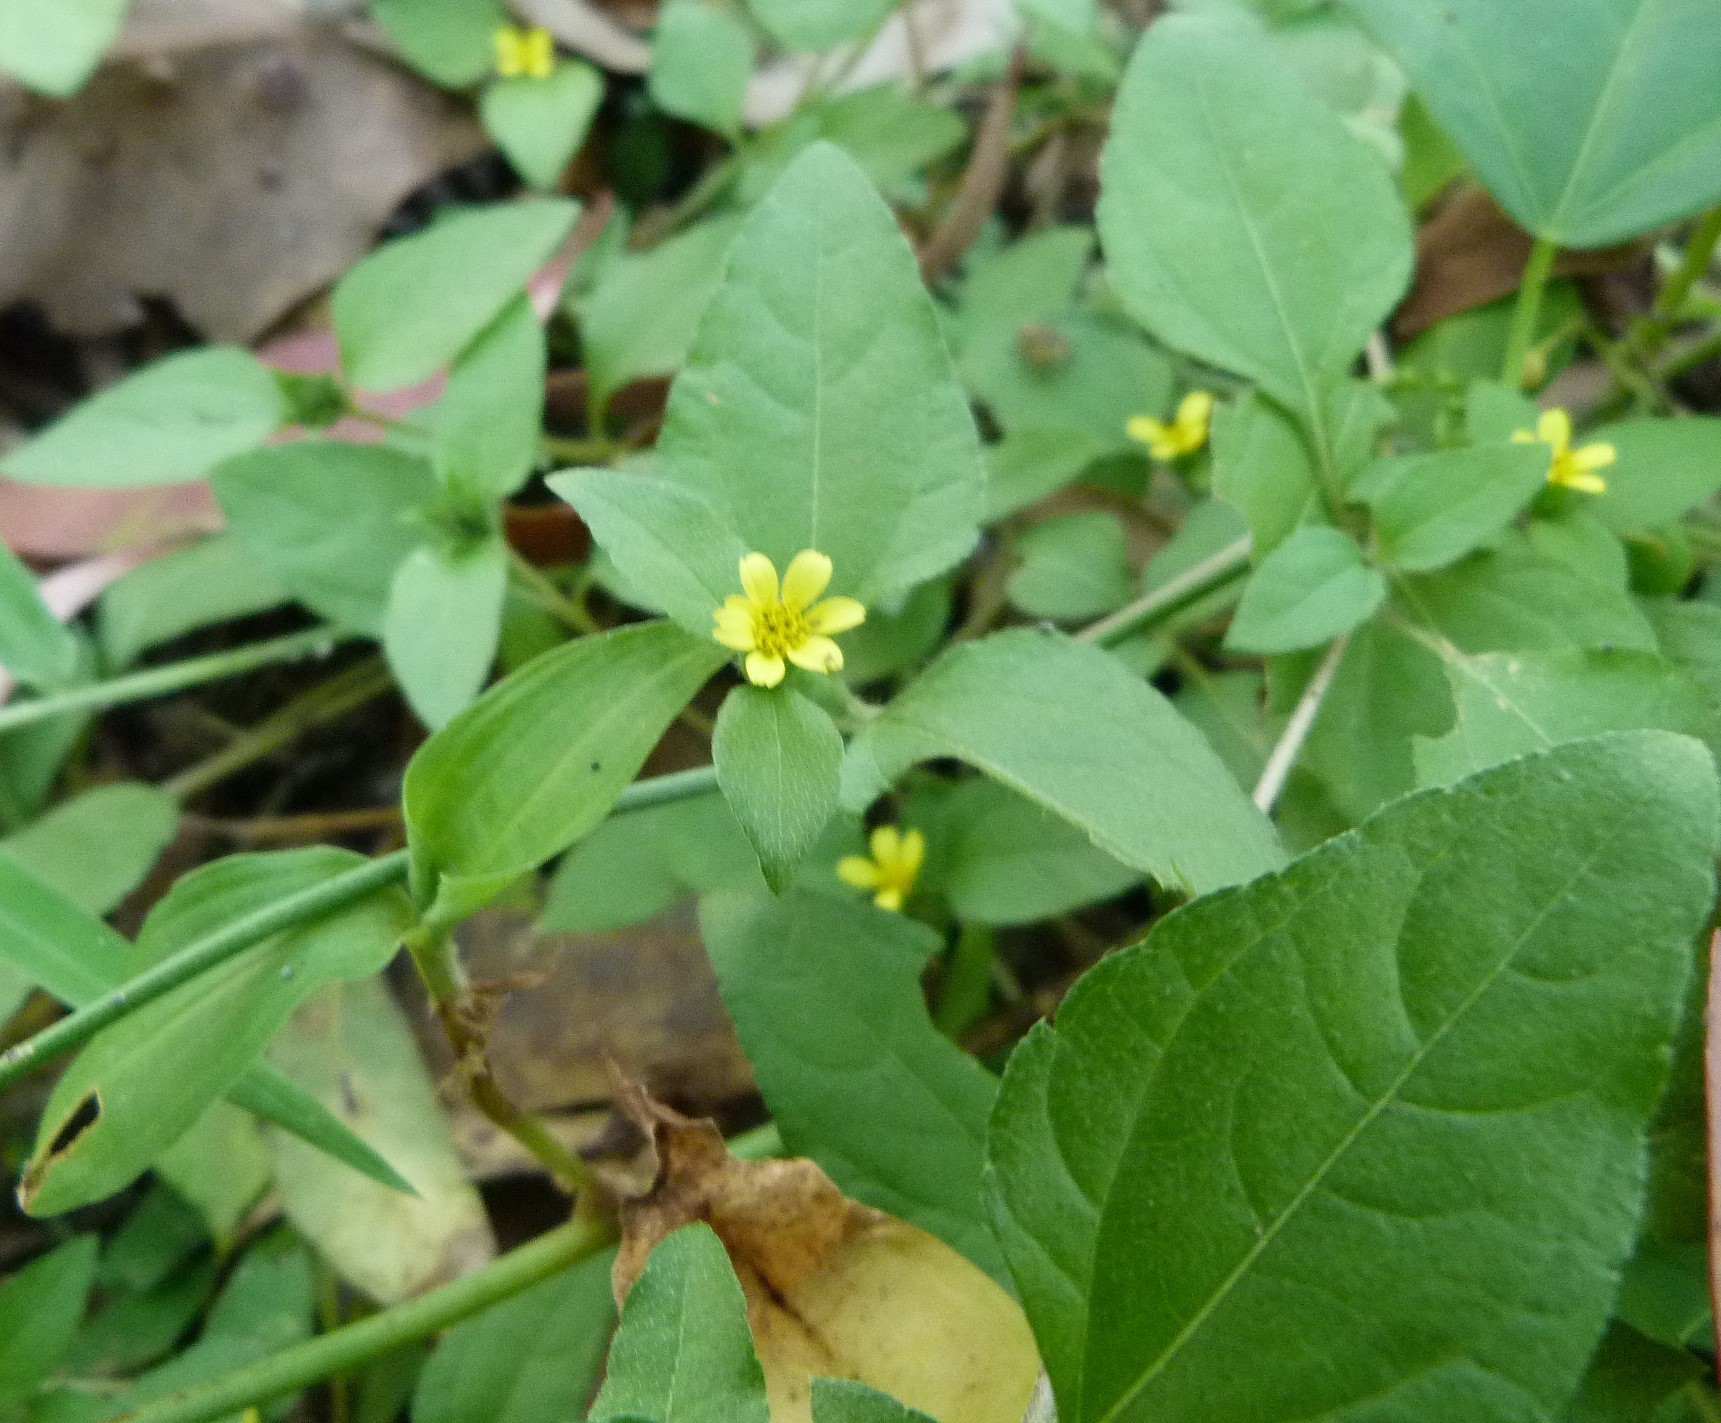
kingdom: Plantae
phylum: Tracheophyta
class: Magnoliopsida
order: Asterales
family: Asteraceae
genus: Calyptocarpus
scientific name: Calyptocarpus vialis
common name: Straggler daisy
